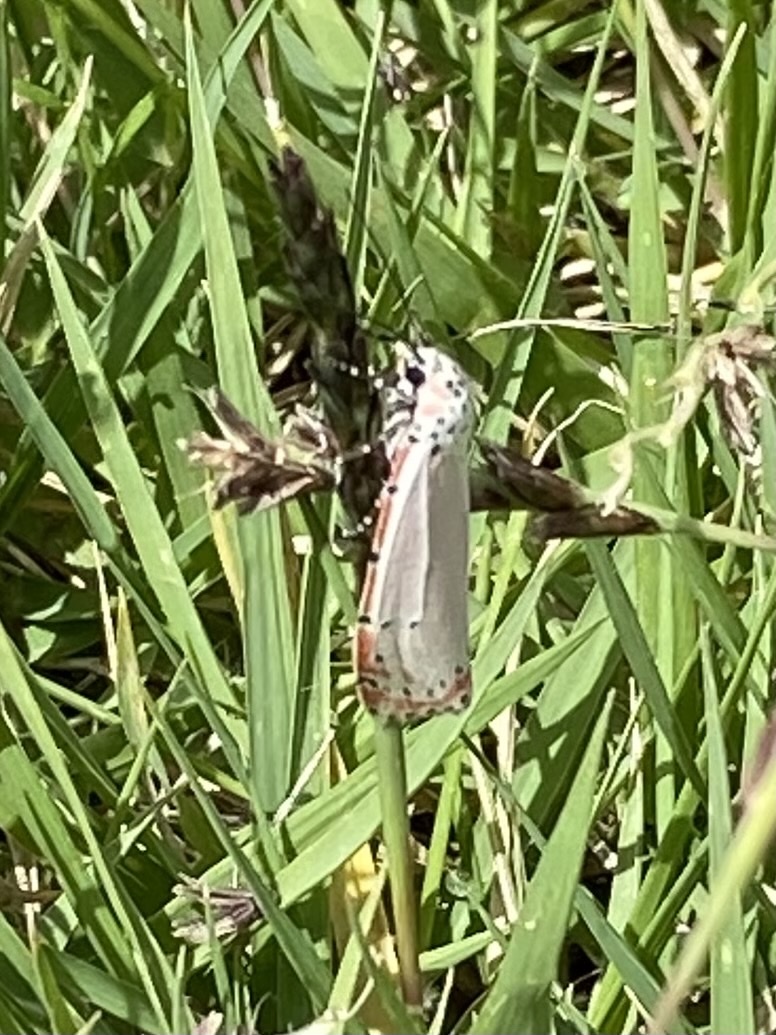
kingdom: Animalia
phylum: Arthropoda
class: Insecta
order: Lepidoptera
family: Erebidae
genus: Utetheisa
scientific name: Utetheisa ornatrix
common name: Beautiful utetheisa
